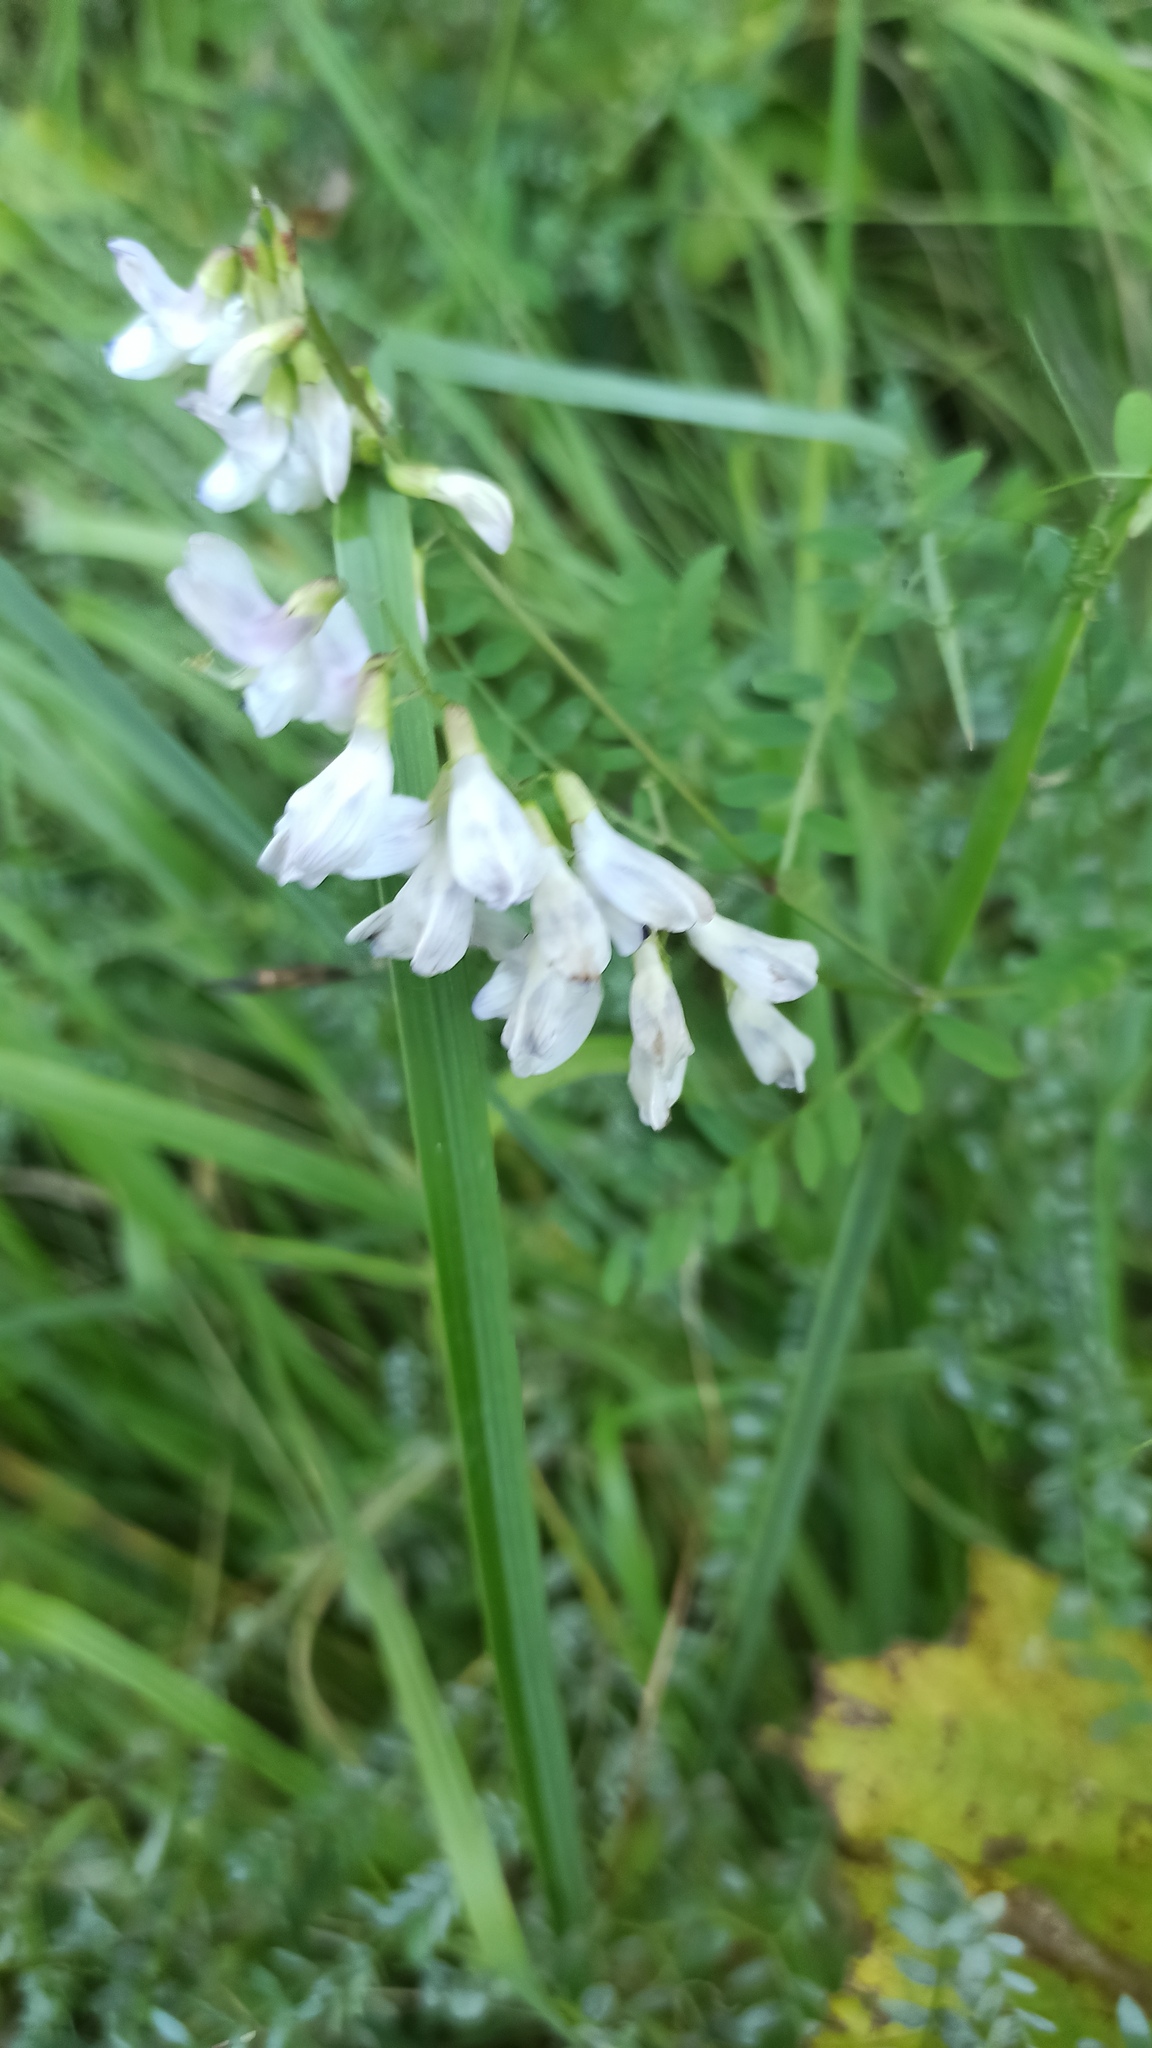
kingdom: Plantae
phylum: Tracheophyta
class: Magnoliopsida
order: Fabales
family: Fabaceae
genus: Vicia
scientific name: Vicia sylvatica
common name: Wood vetch
